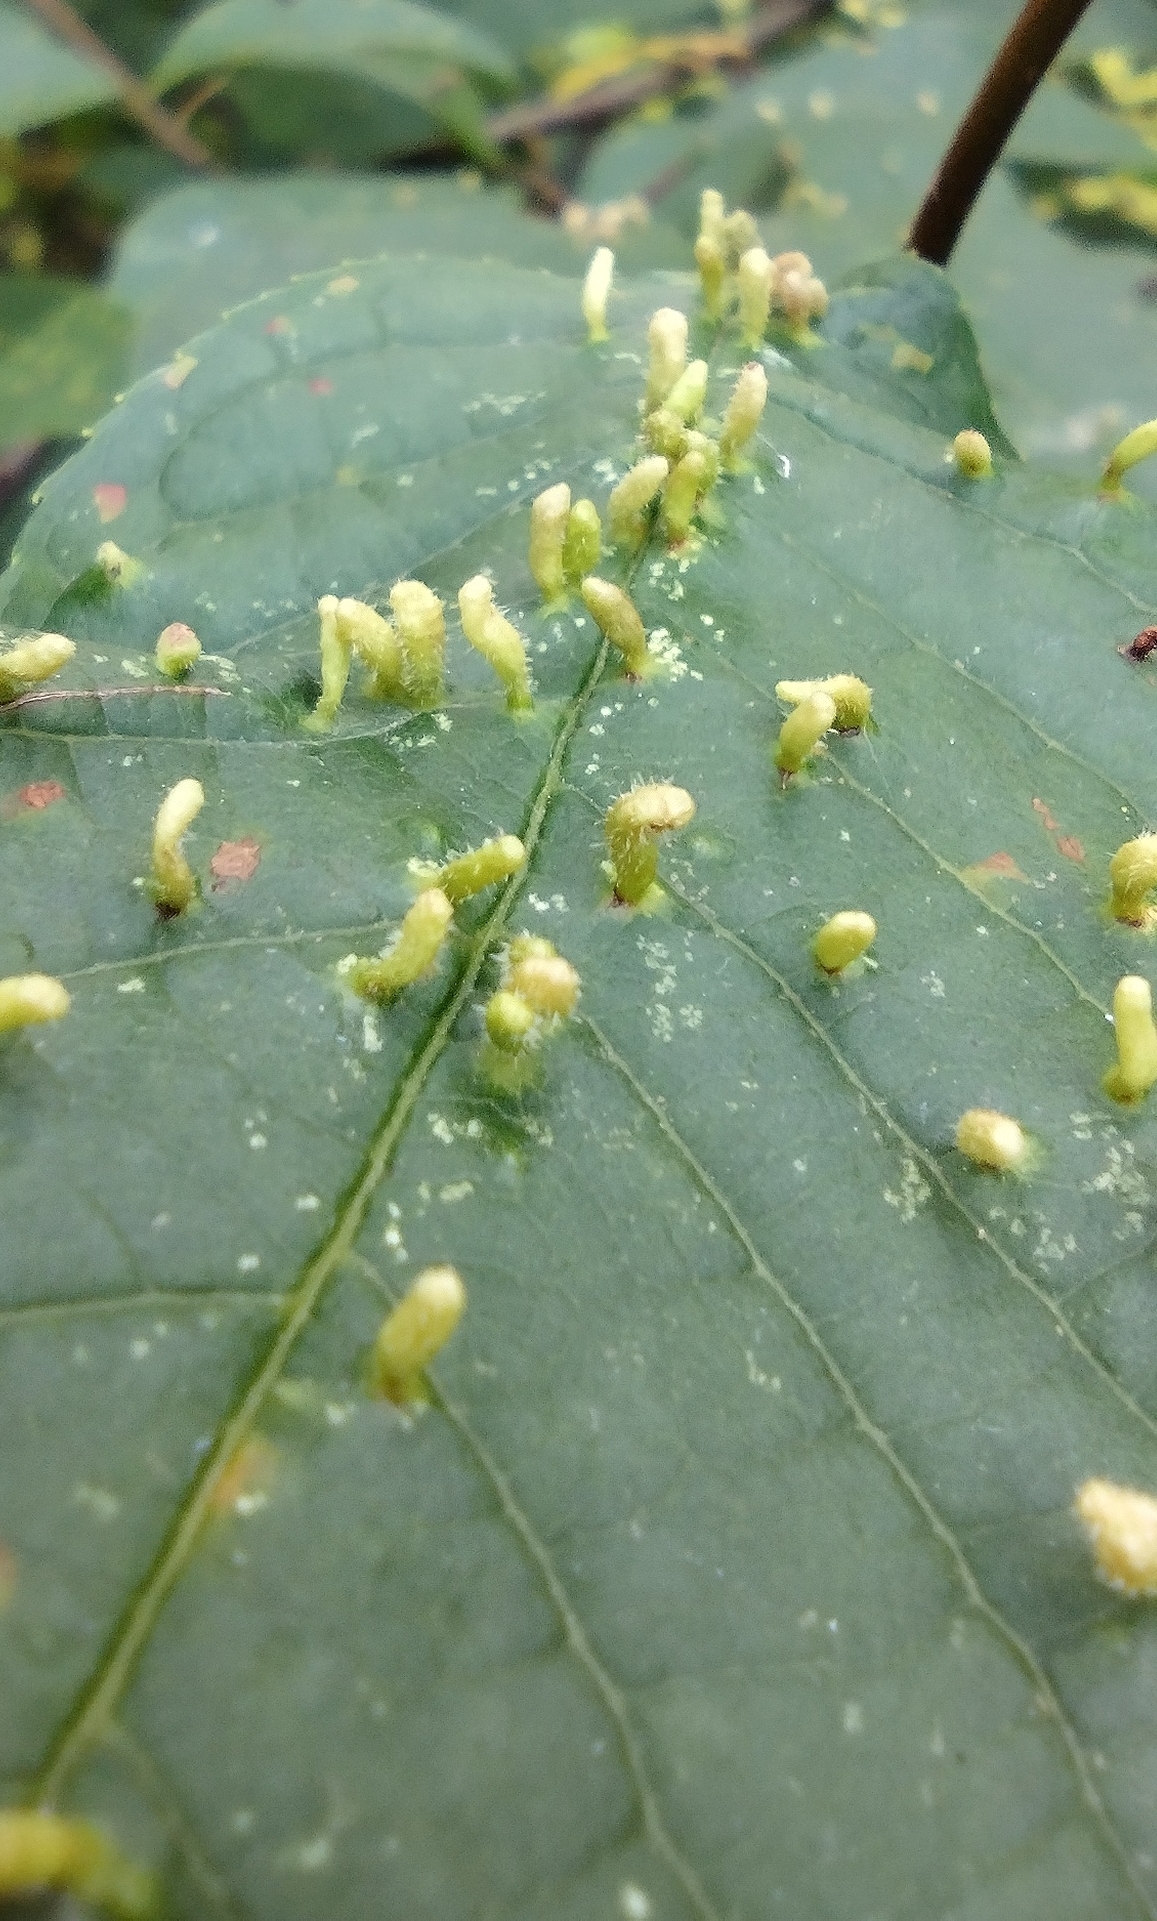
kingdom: Animalia
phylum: Arthropoda
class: Arachnida
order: Trombidiformes
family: Eriophyidae
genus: Phyllocoptes
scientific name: Phyllocoptes eupadi
